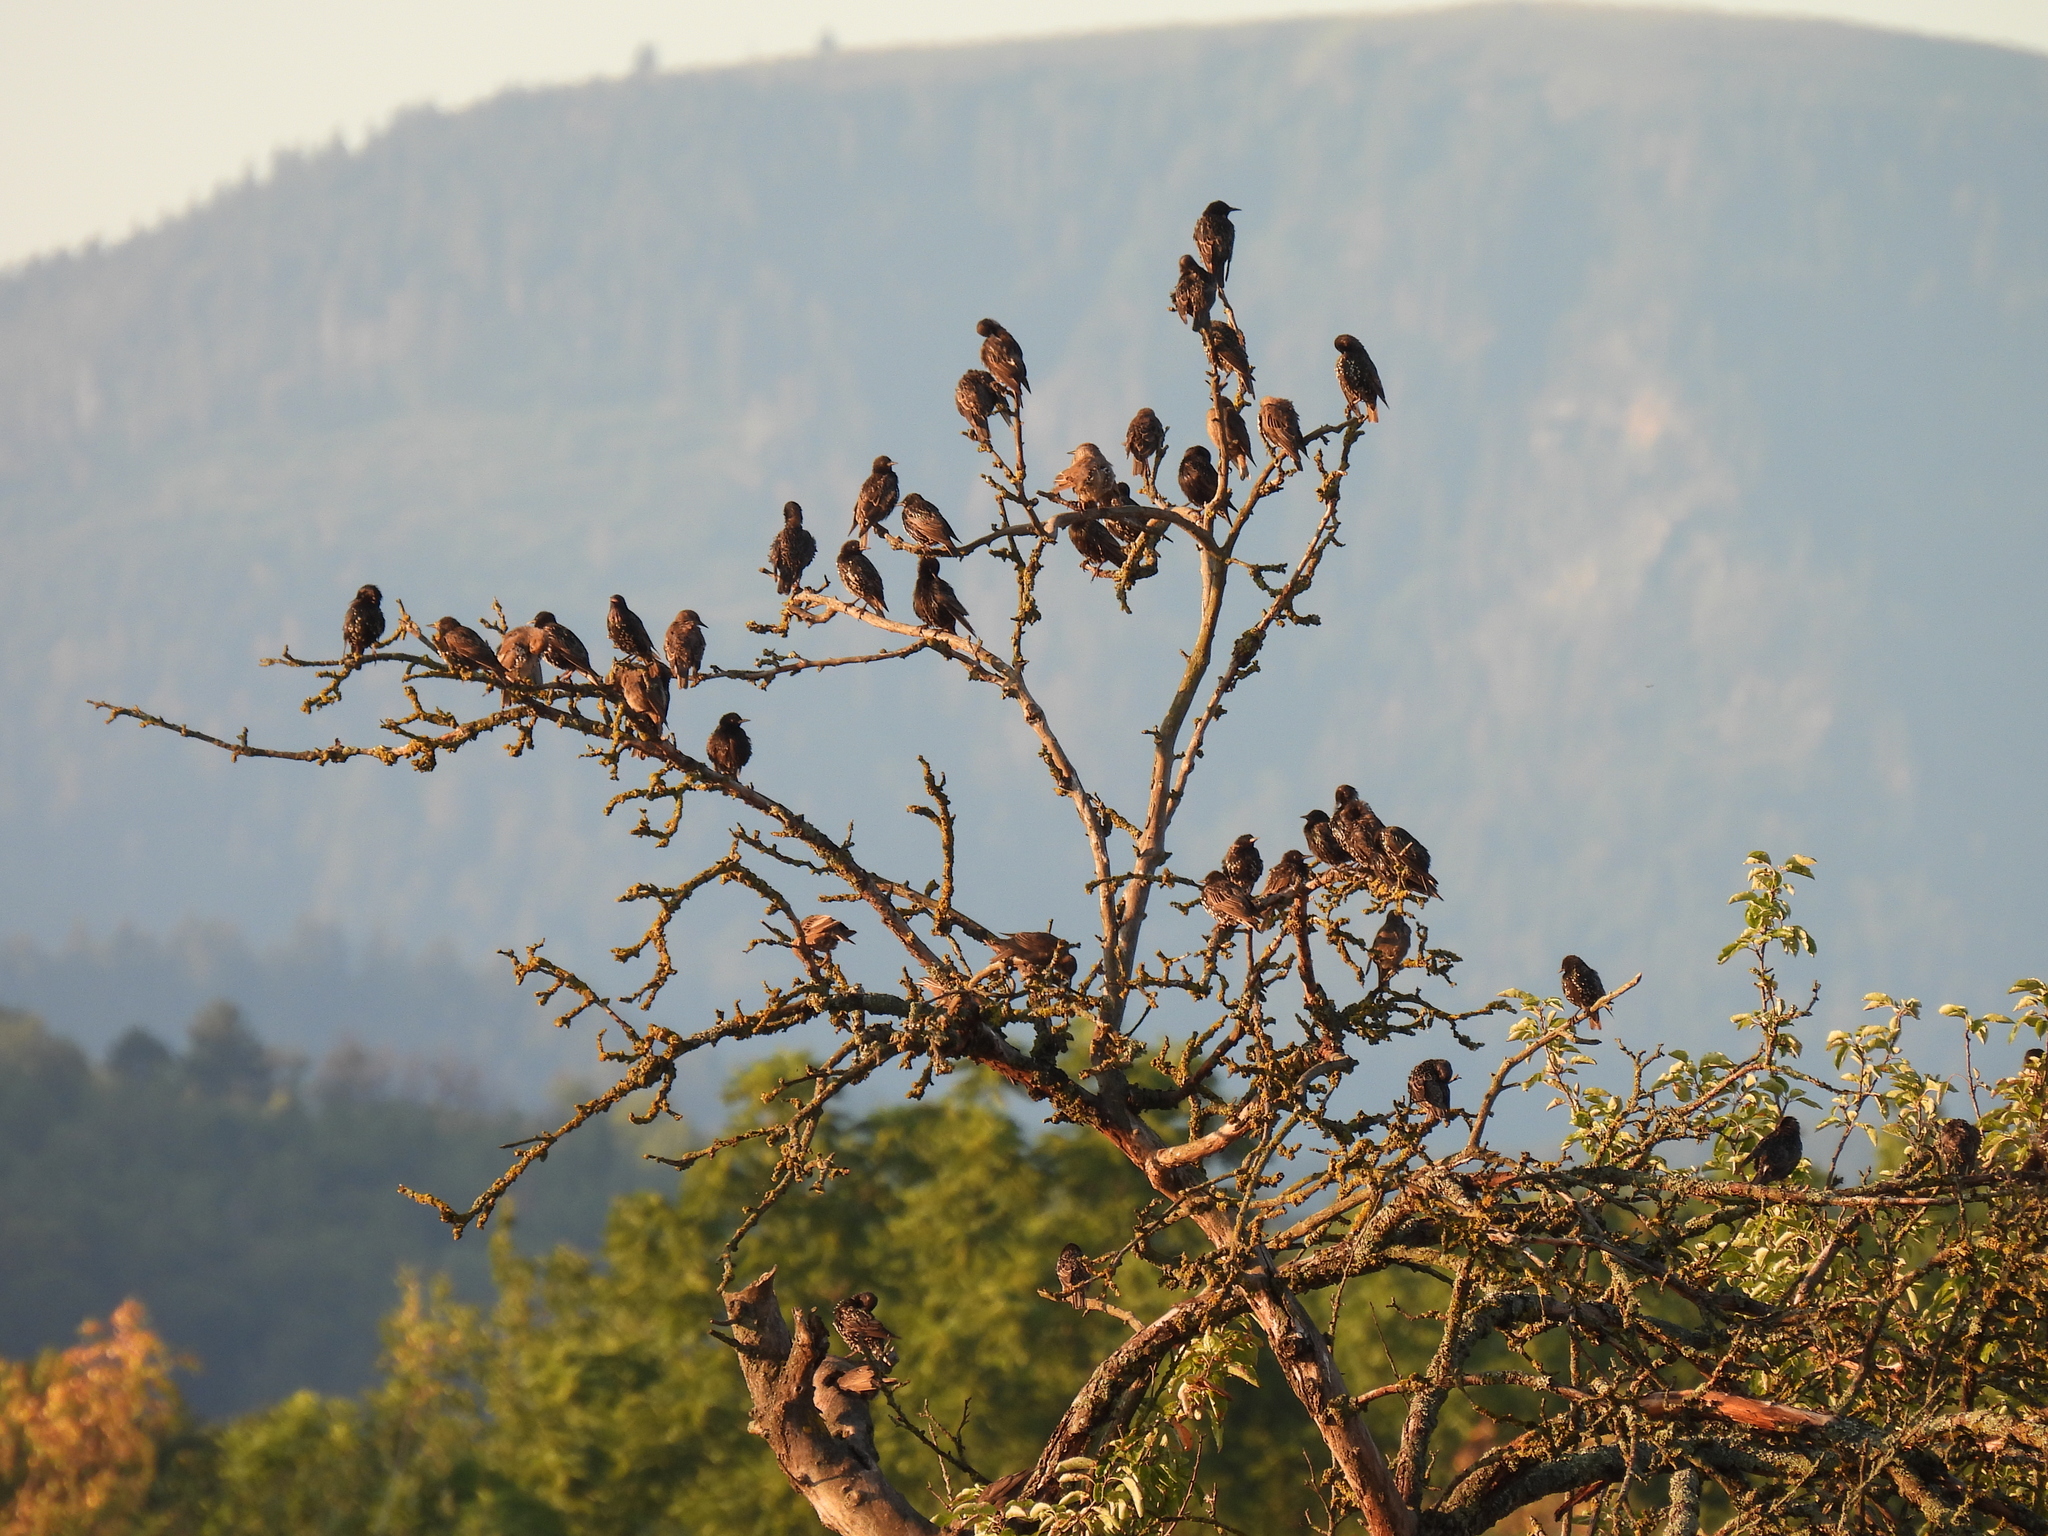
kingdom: Animalia
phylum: Chordata
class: Aves
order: Passeriformes
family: Sturnidae
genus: Sturnus
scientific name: Sturnus vulgaris
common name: Common starling
